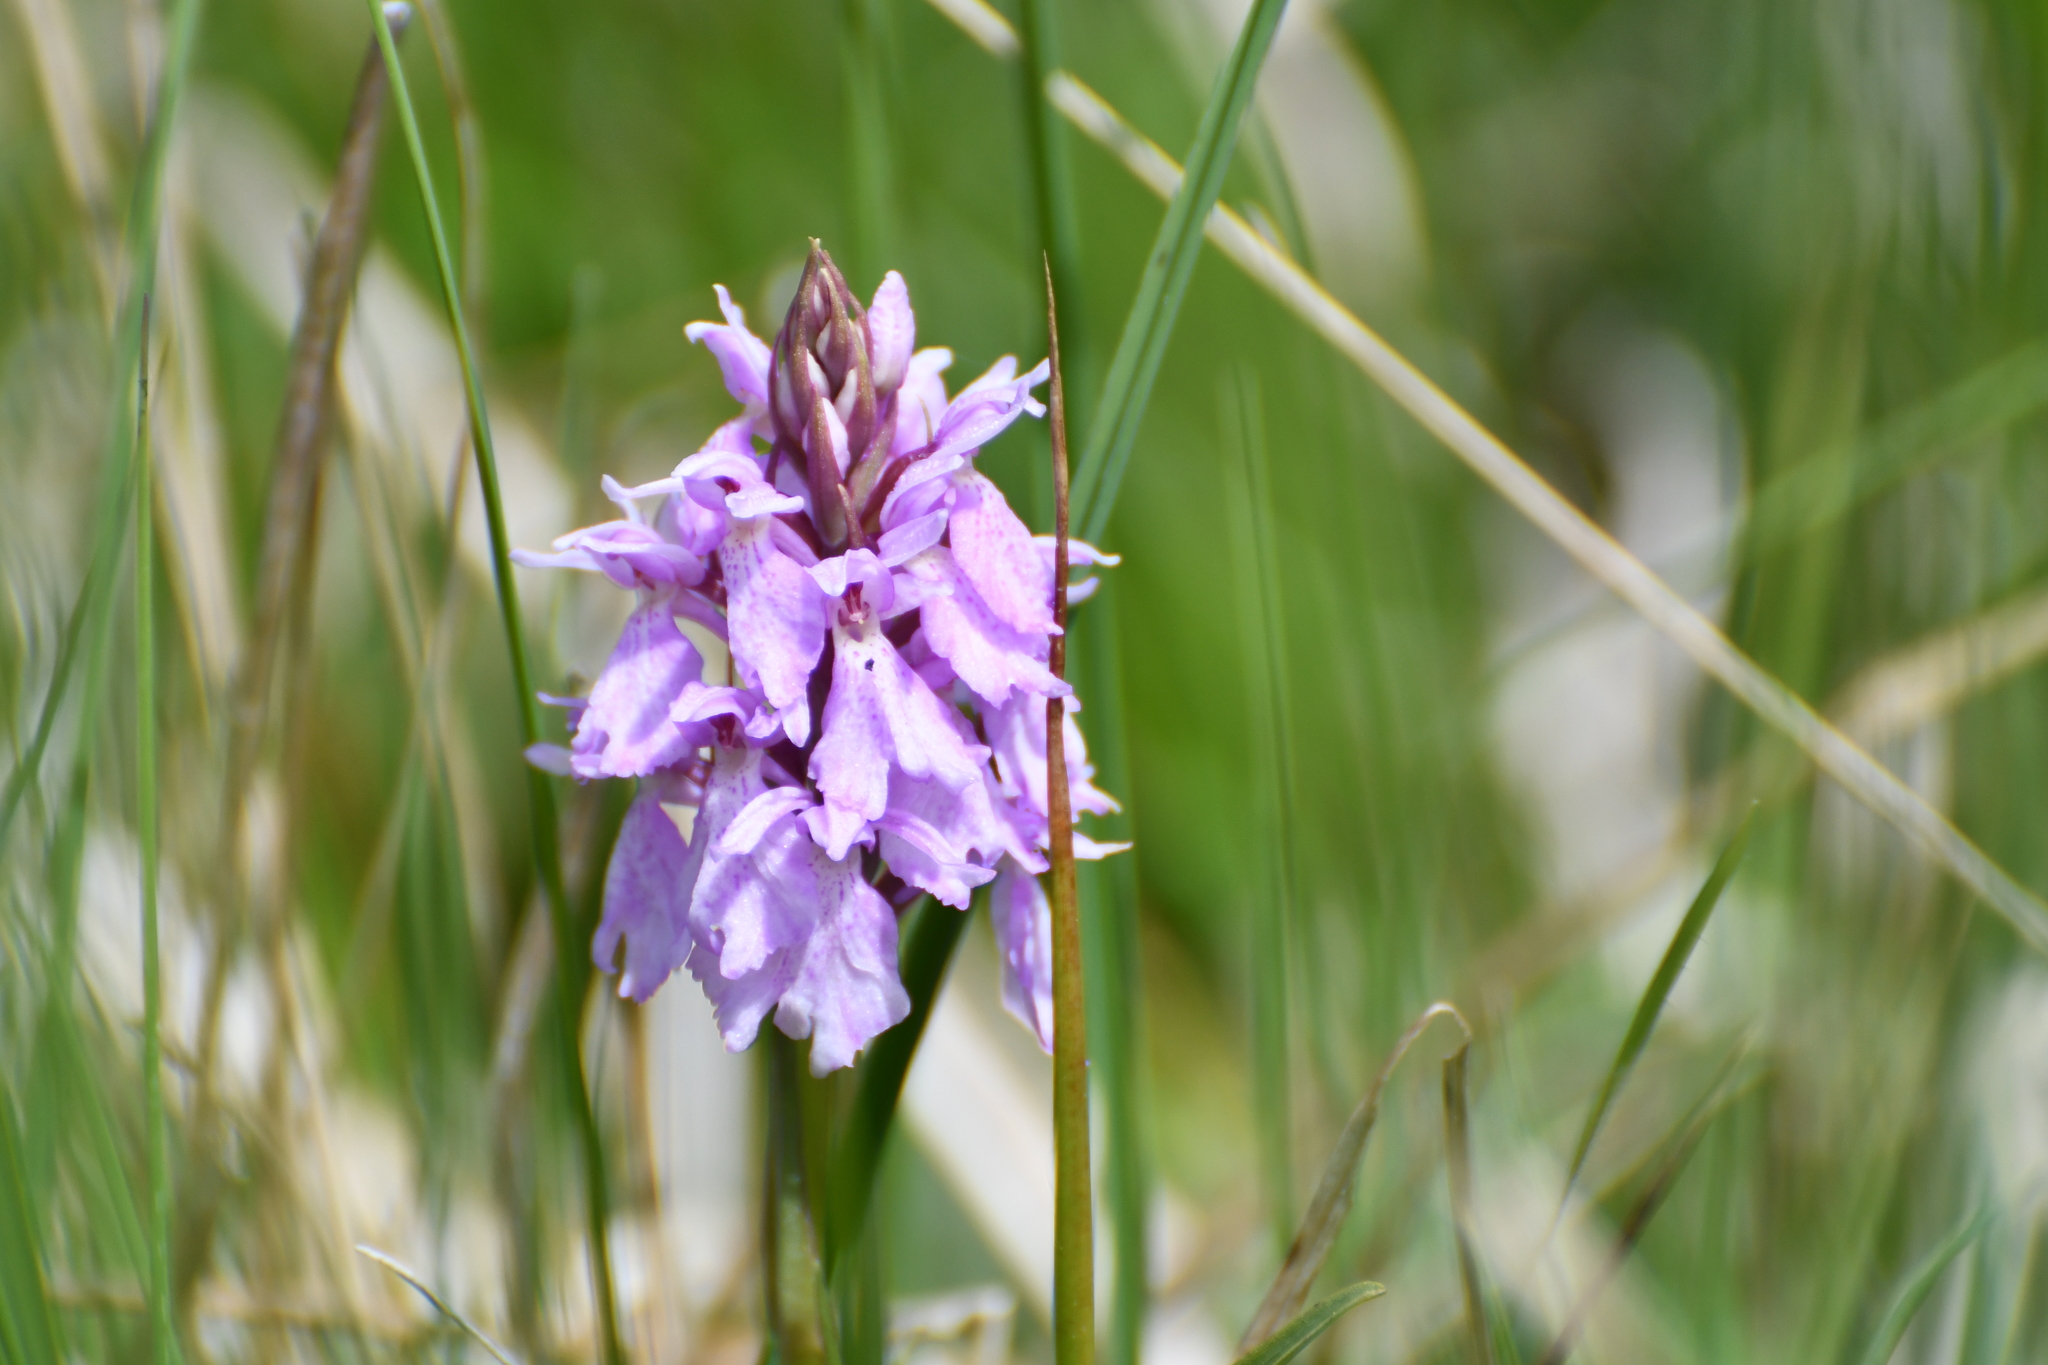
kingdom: Plantae
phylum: Tracheophyta
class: Liliopsida
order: Asparagales
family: Orchidaceae
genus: Dactylorhiza
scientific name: Dactylorhiza maculata
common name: Heath spotted-orchid
